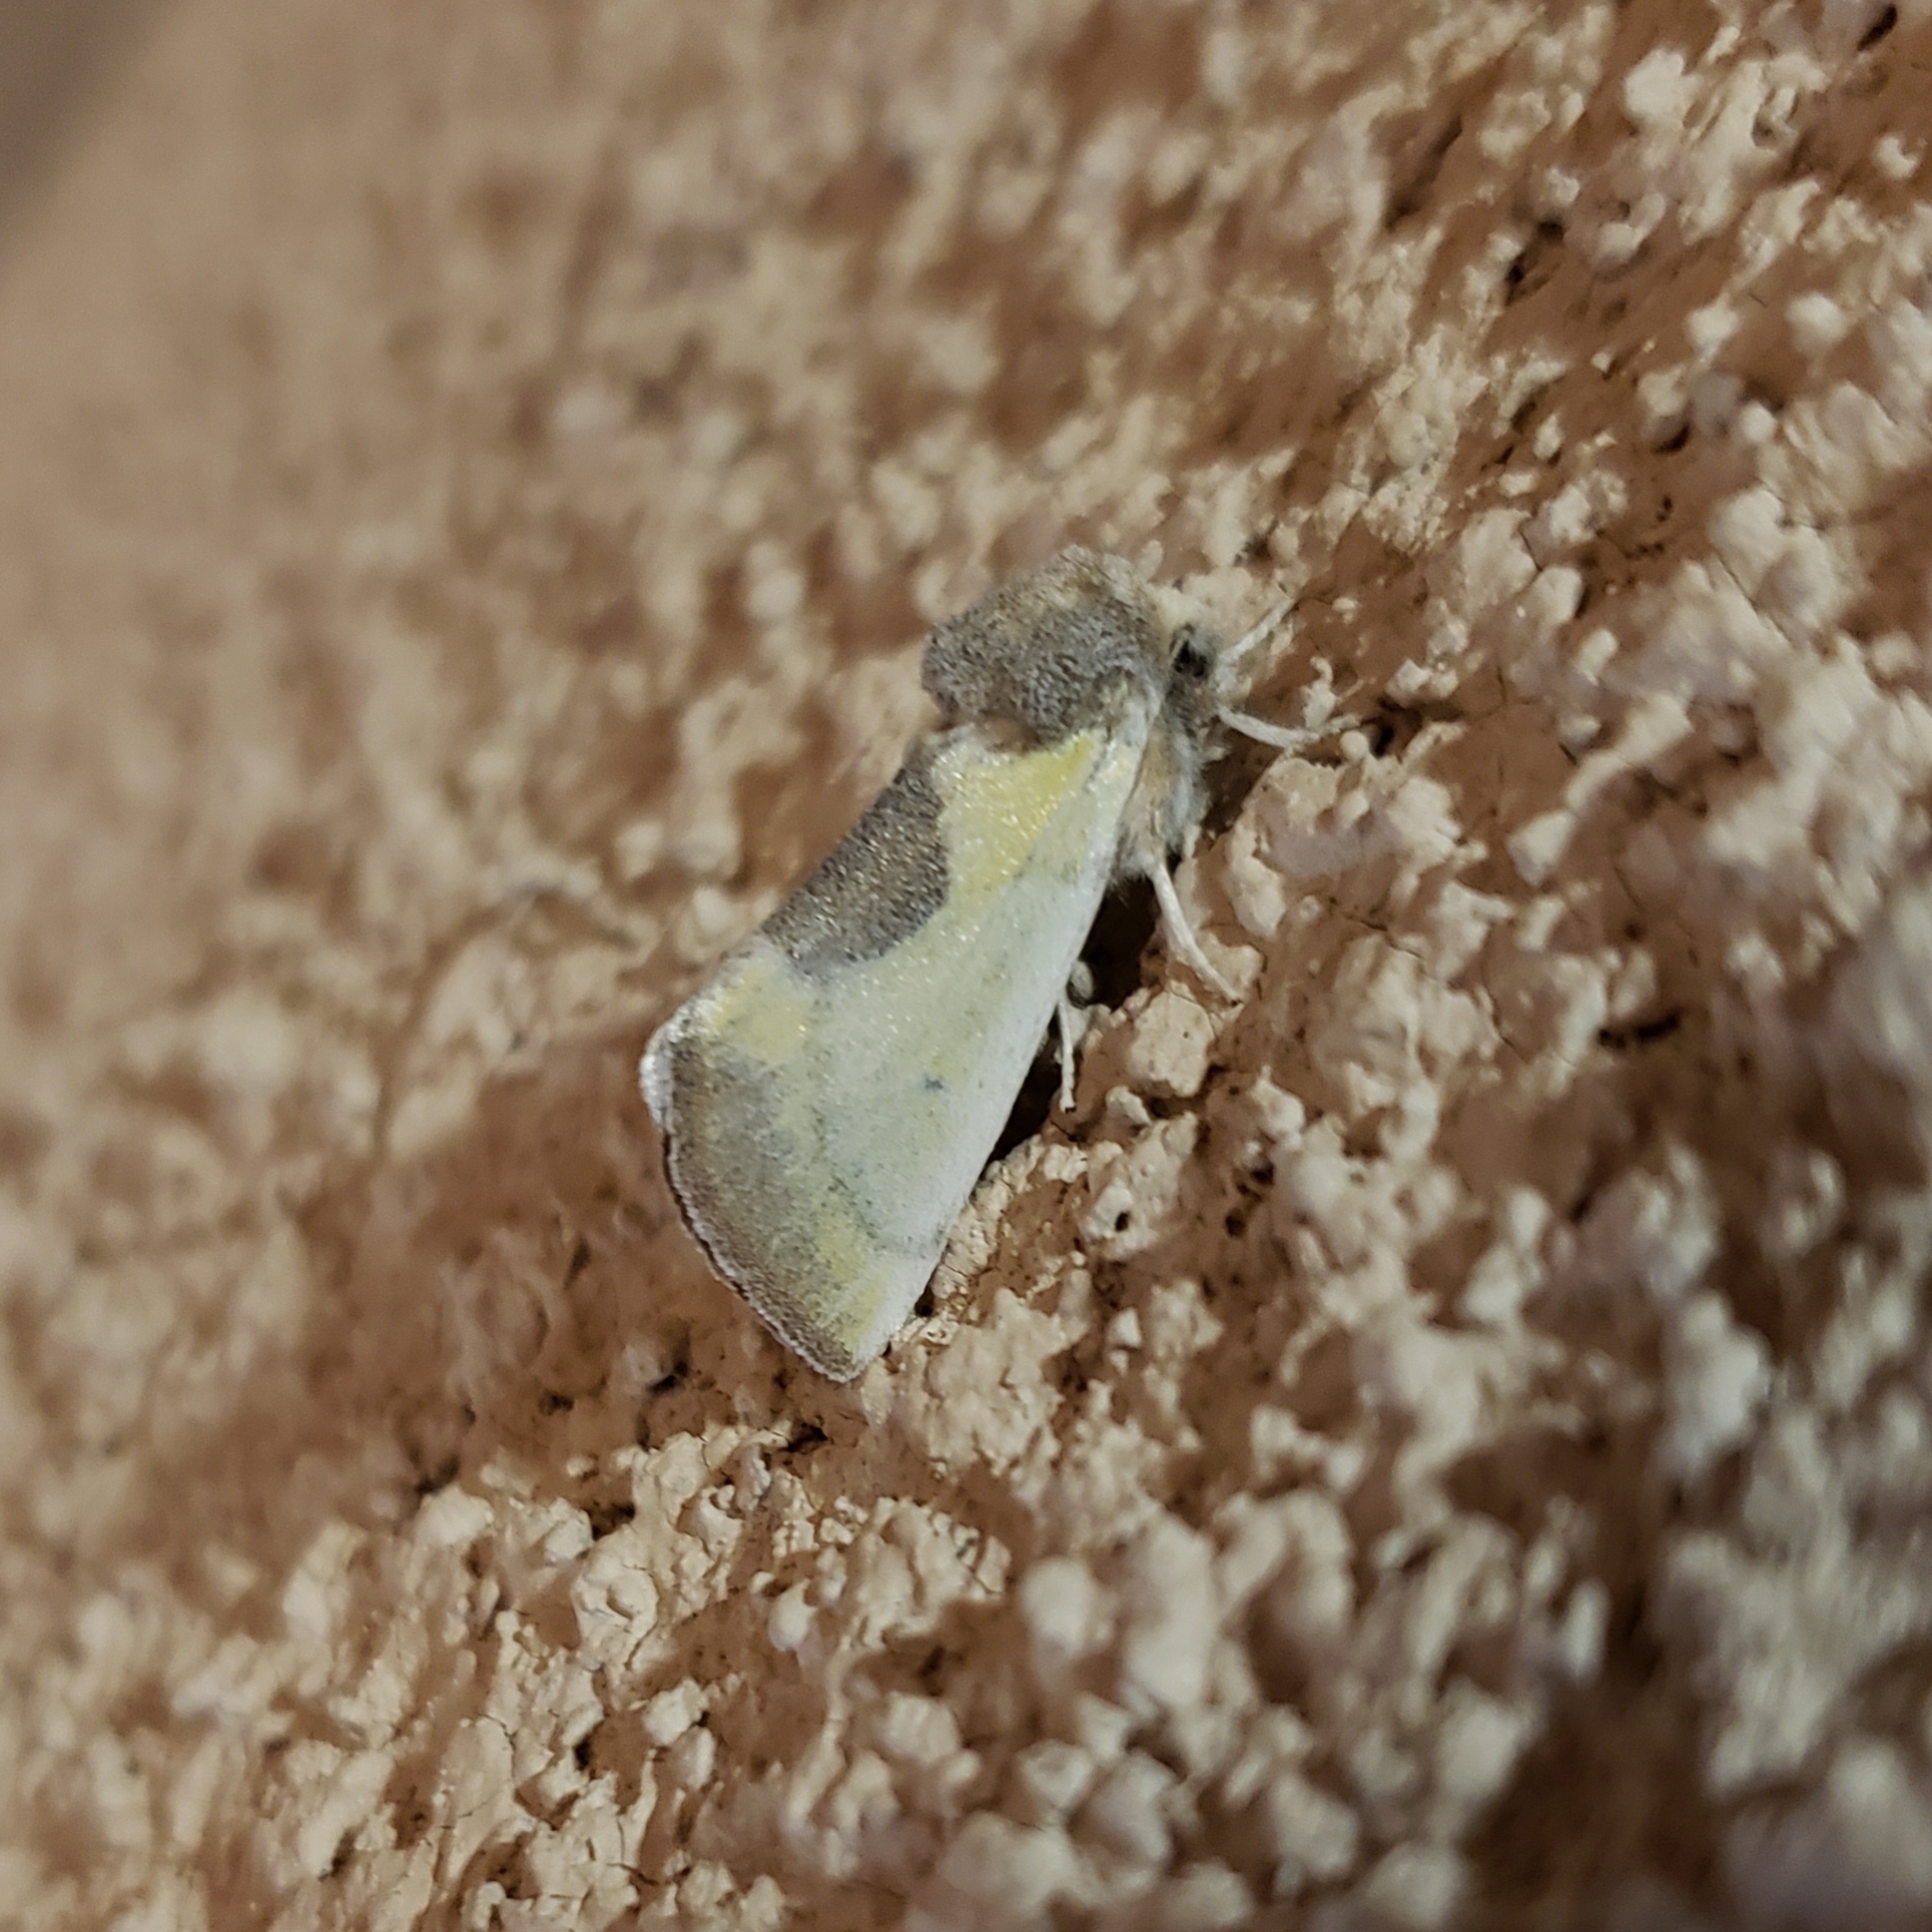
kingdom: Animalia
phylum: Arthropoda
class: Insecta
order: Lepidoptera
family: Noctuidae
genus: Stiria
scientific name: Stiria consuela
